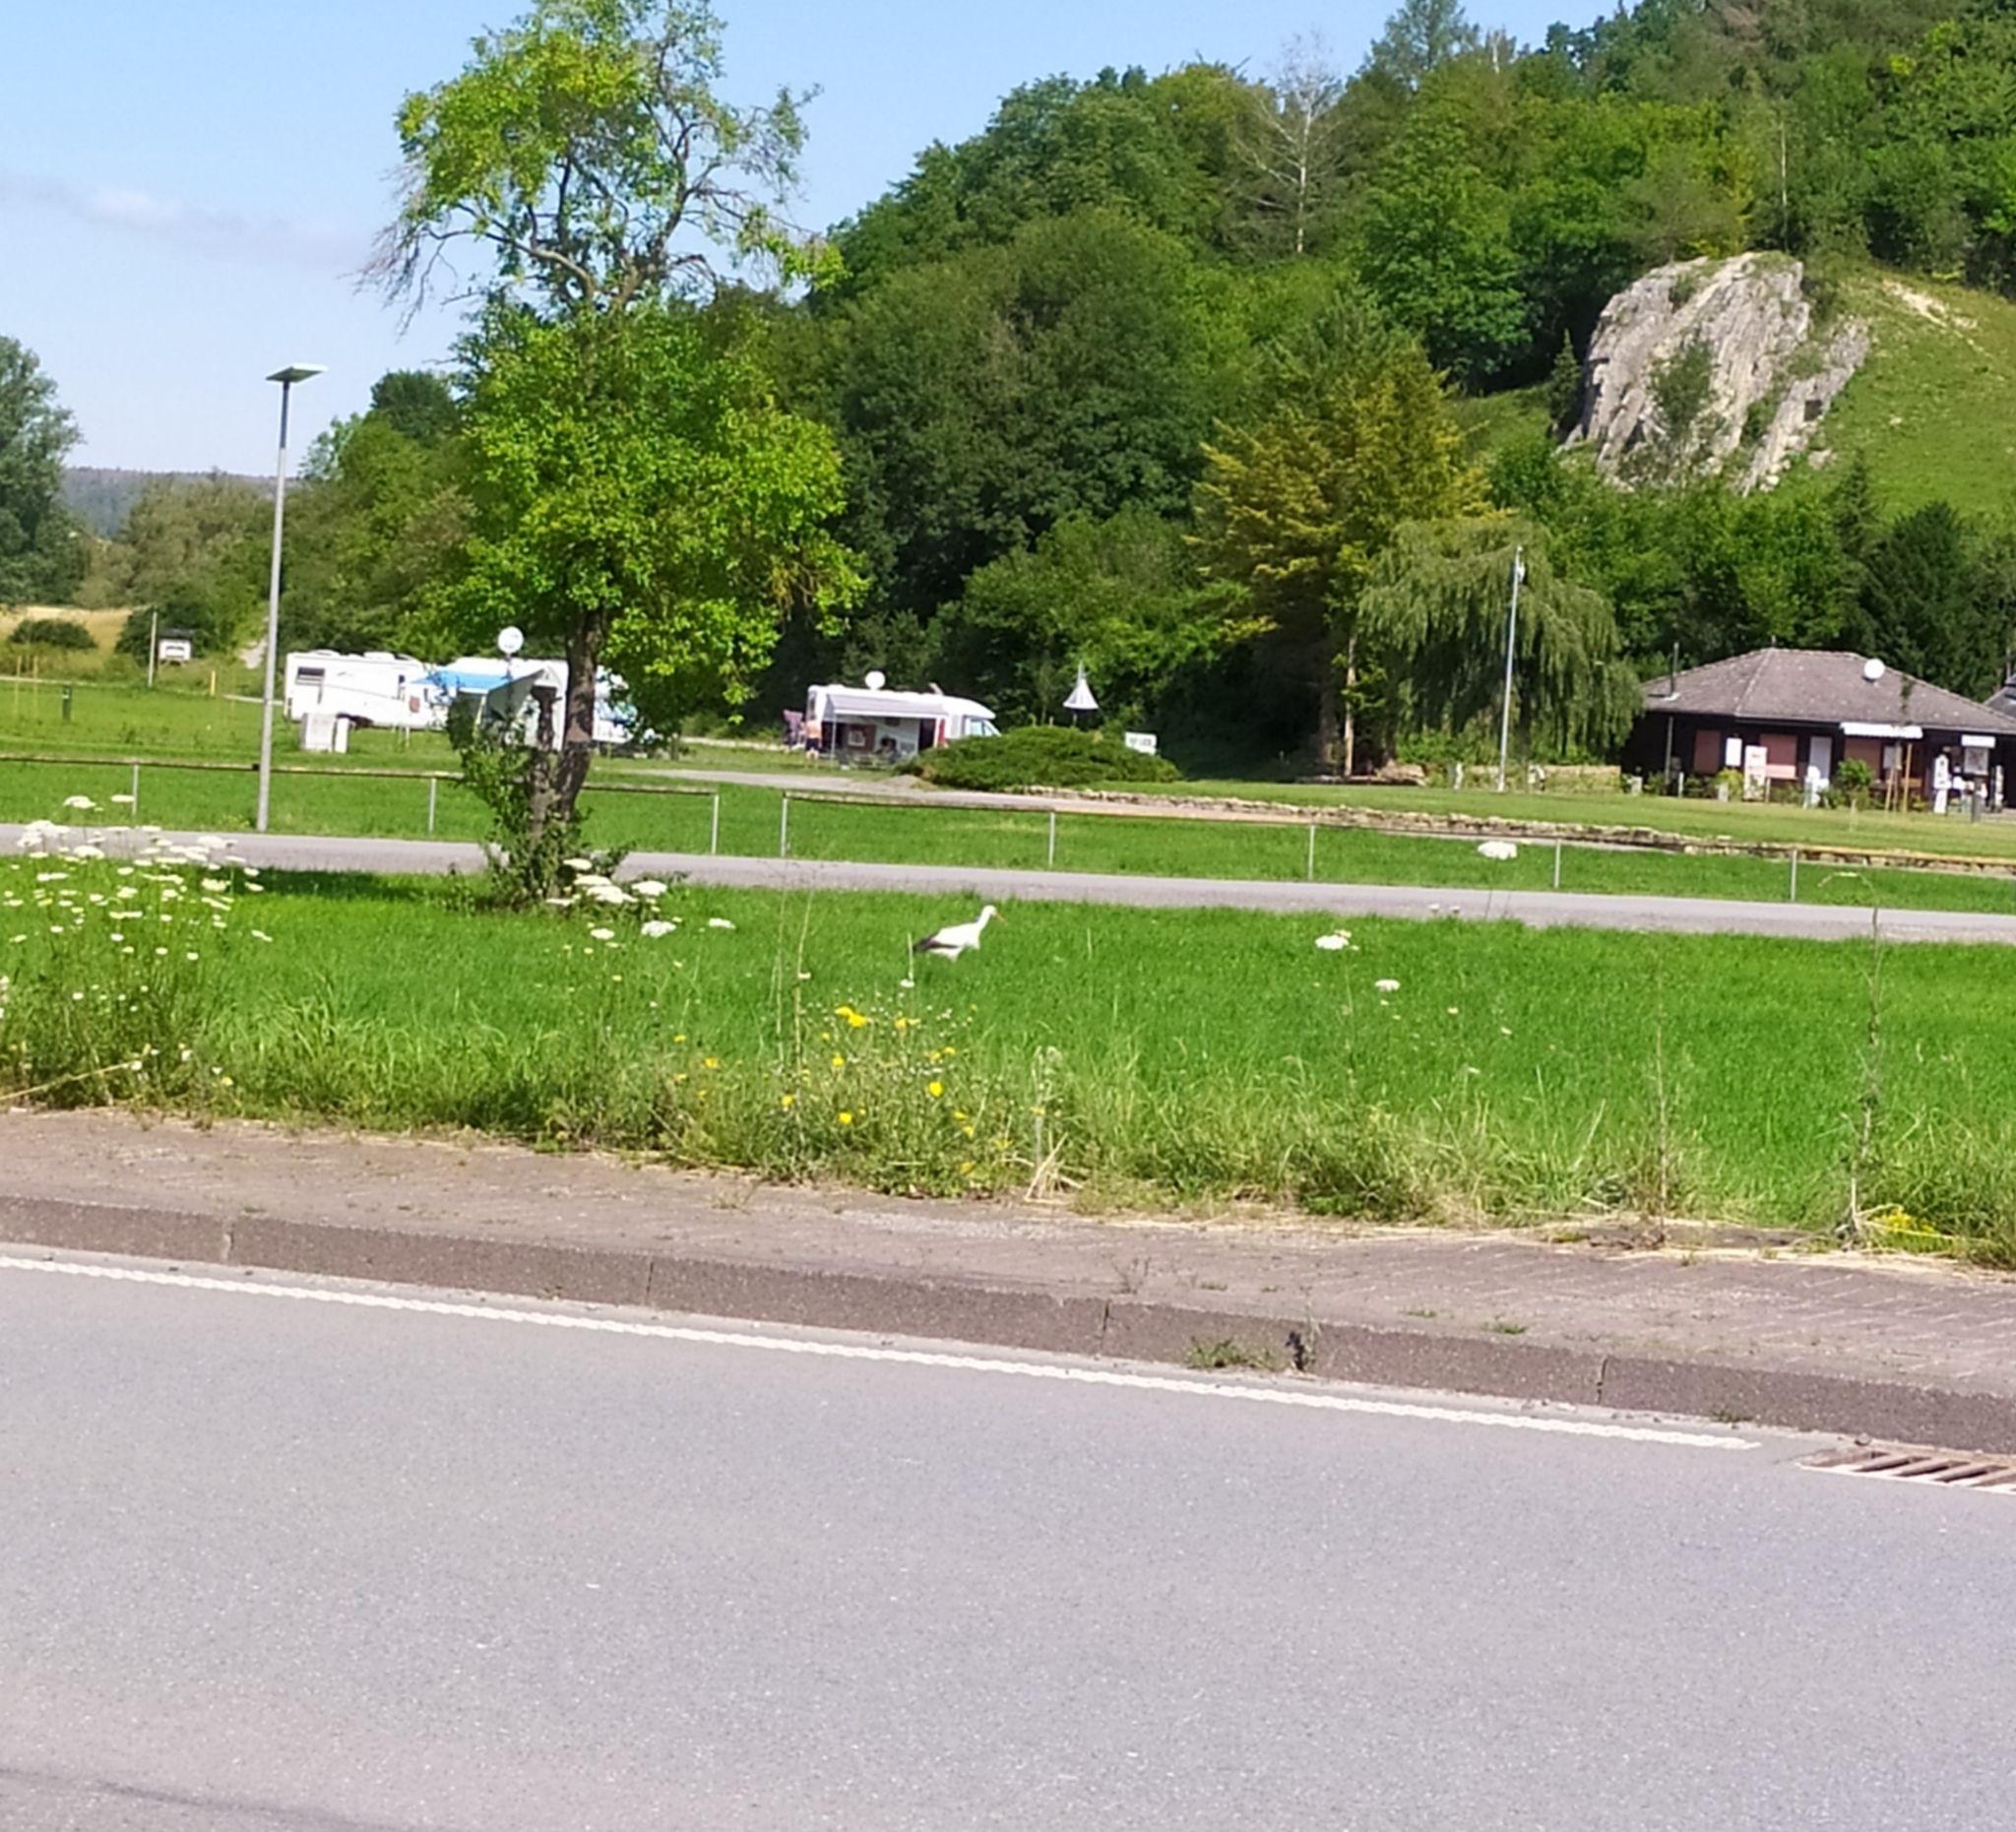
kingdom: Animalia
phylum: Chordata
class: Aves
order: Ciconiiformes
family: Ciconiidae
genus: Ciconia
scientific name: Ciconia ciconia
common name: White stork
